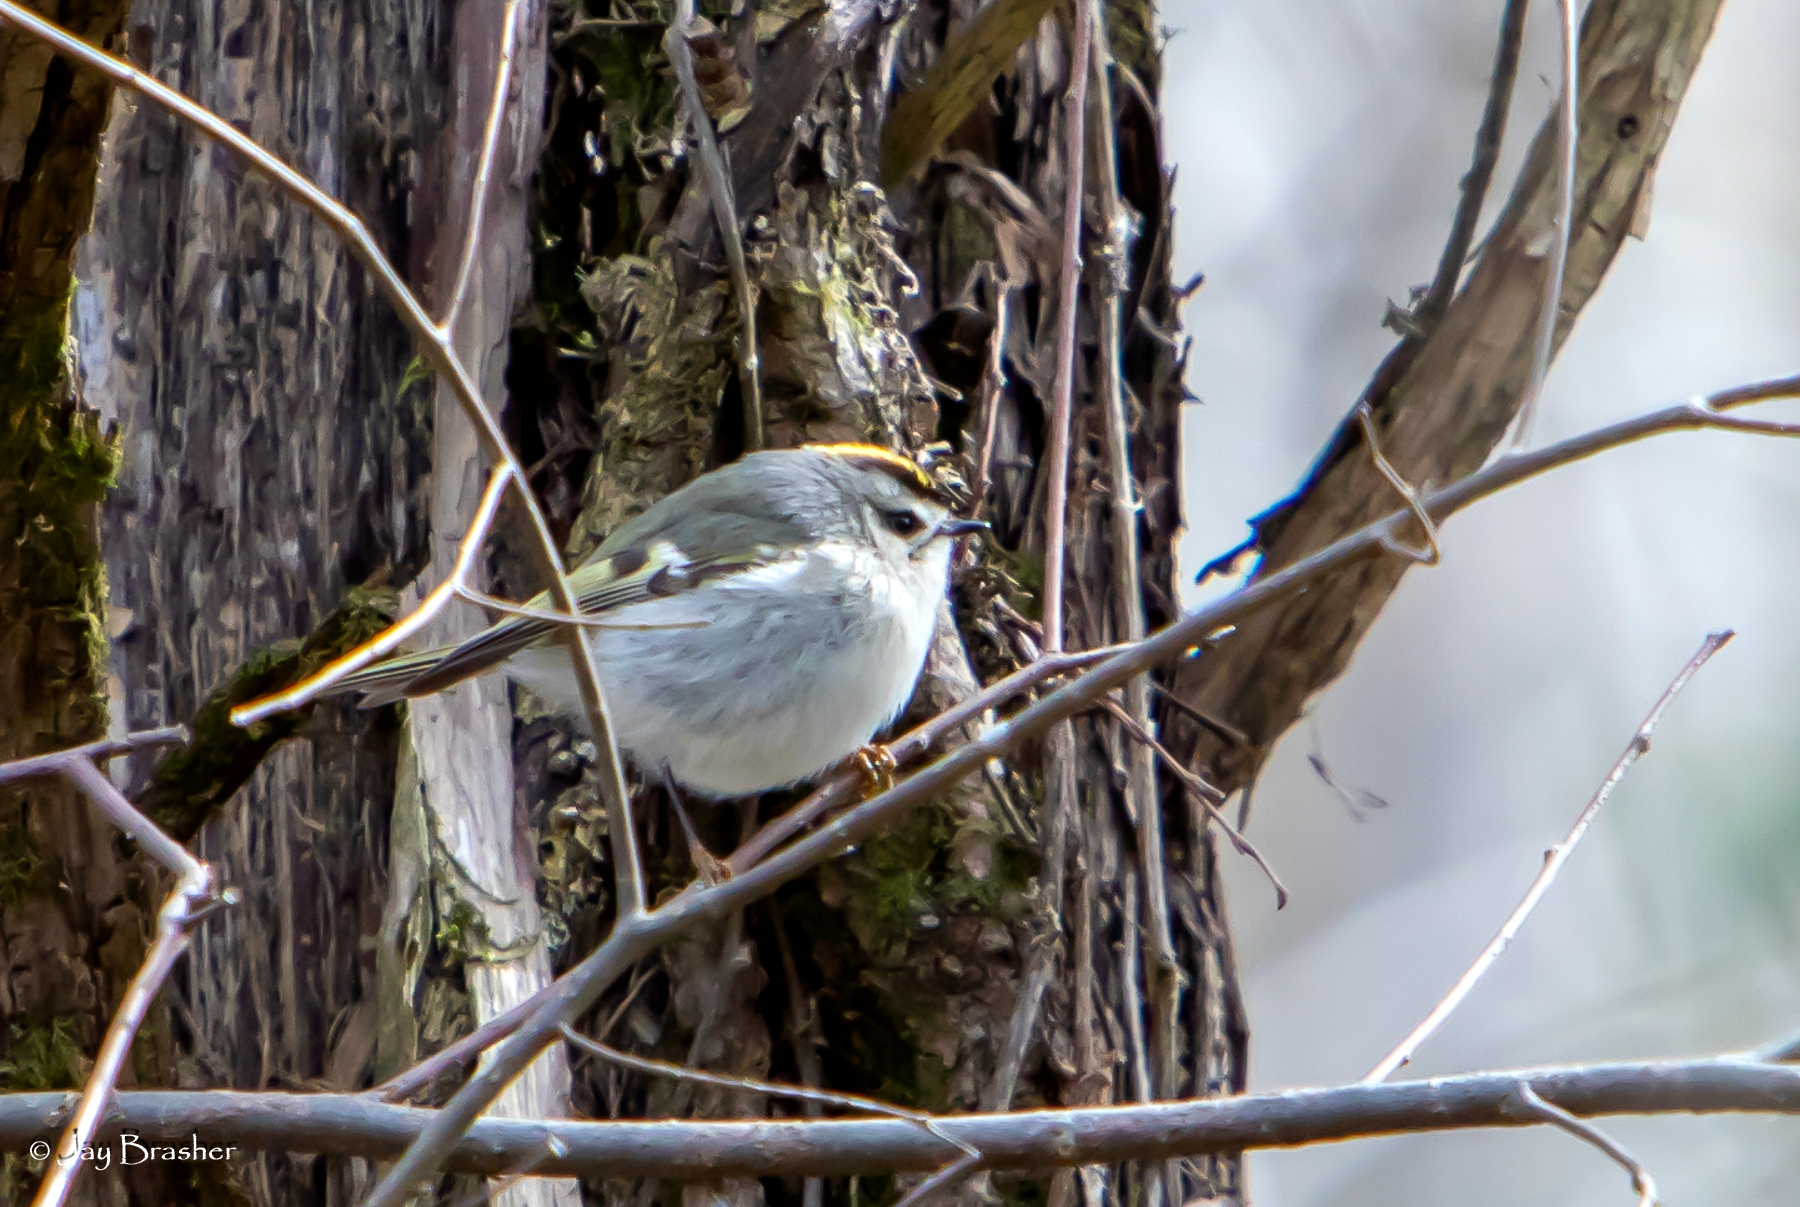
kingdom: Animalia
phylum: Chordata
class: Aves
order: Passeriformes
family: Regulidae
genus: Regulus
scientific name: Regulus satrapa
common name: Golden-crowned kinglet
